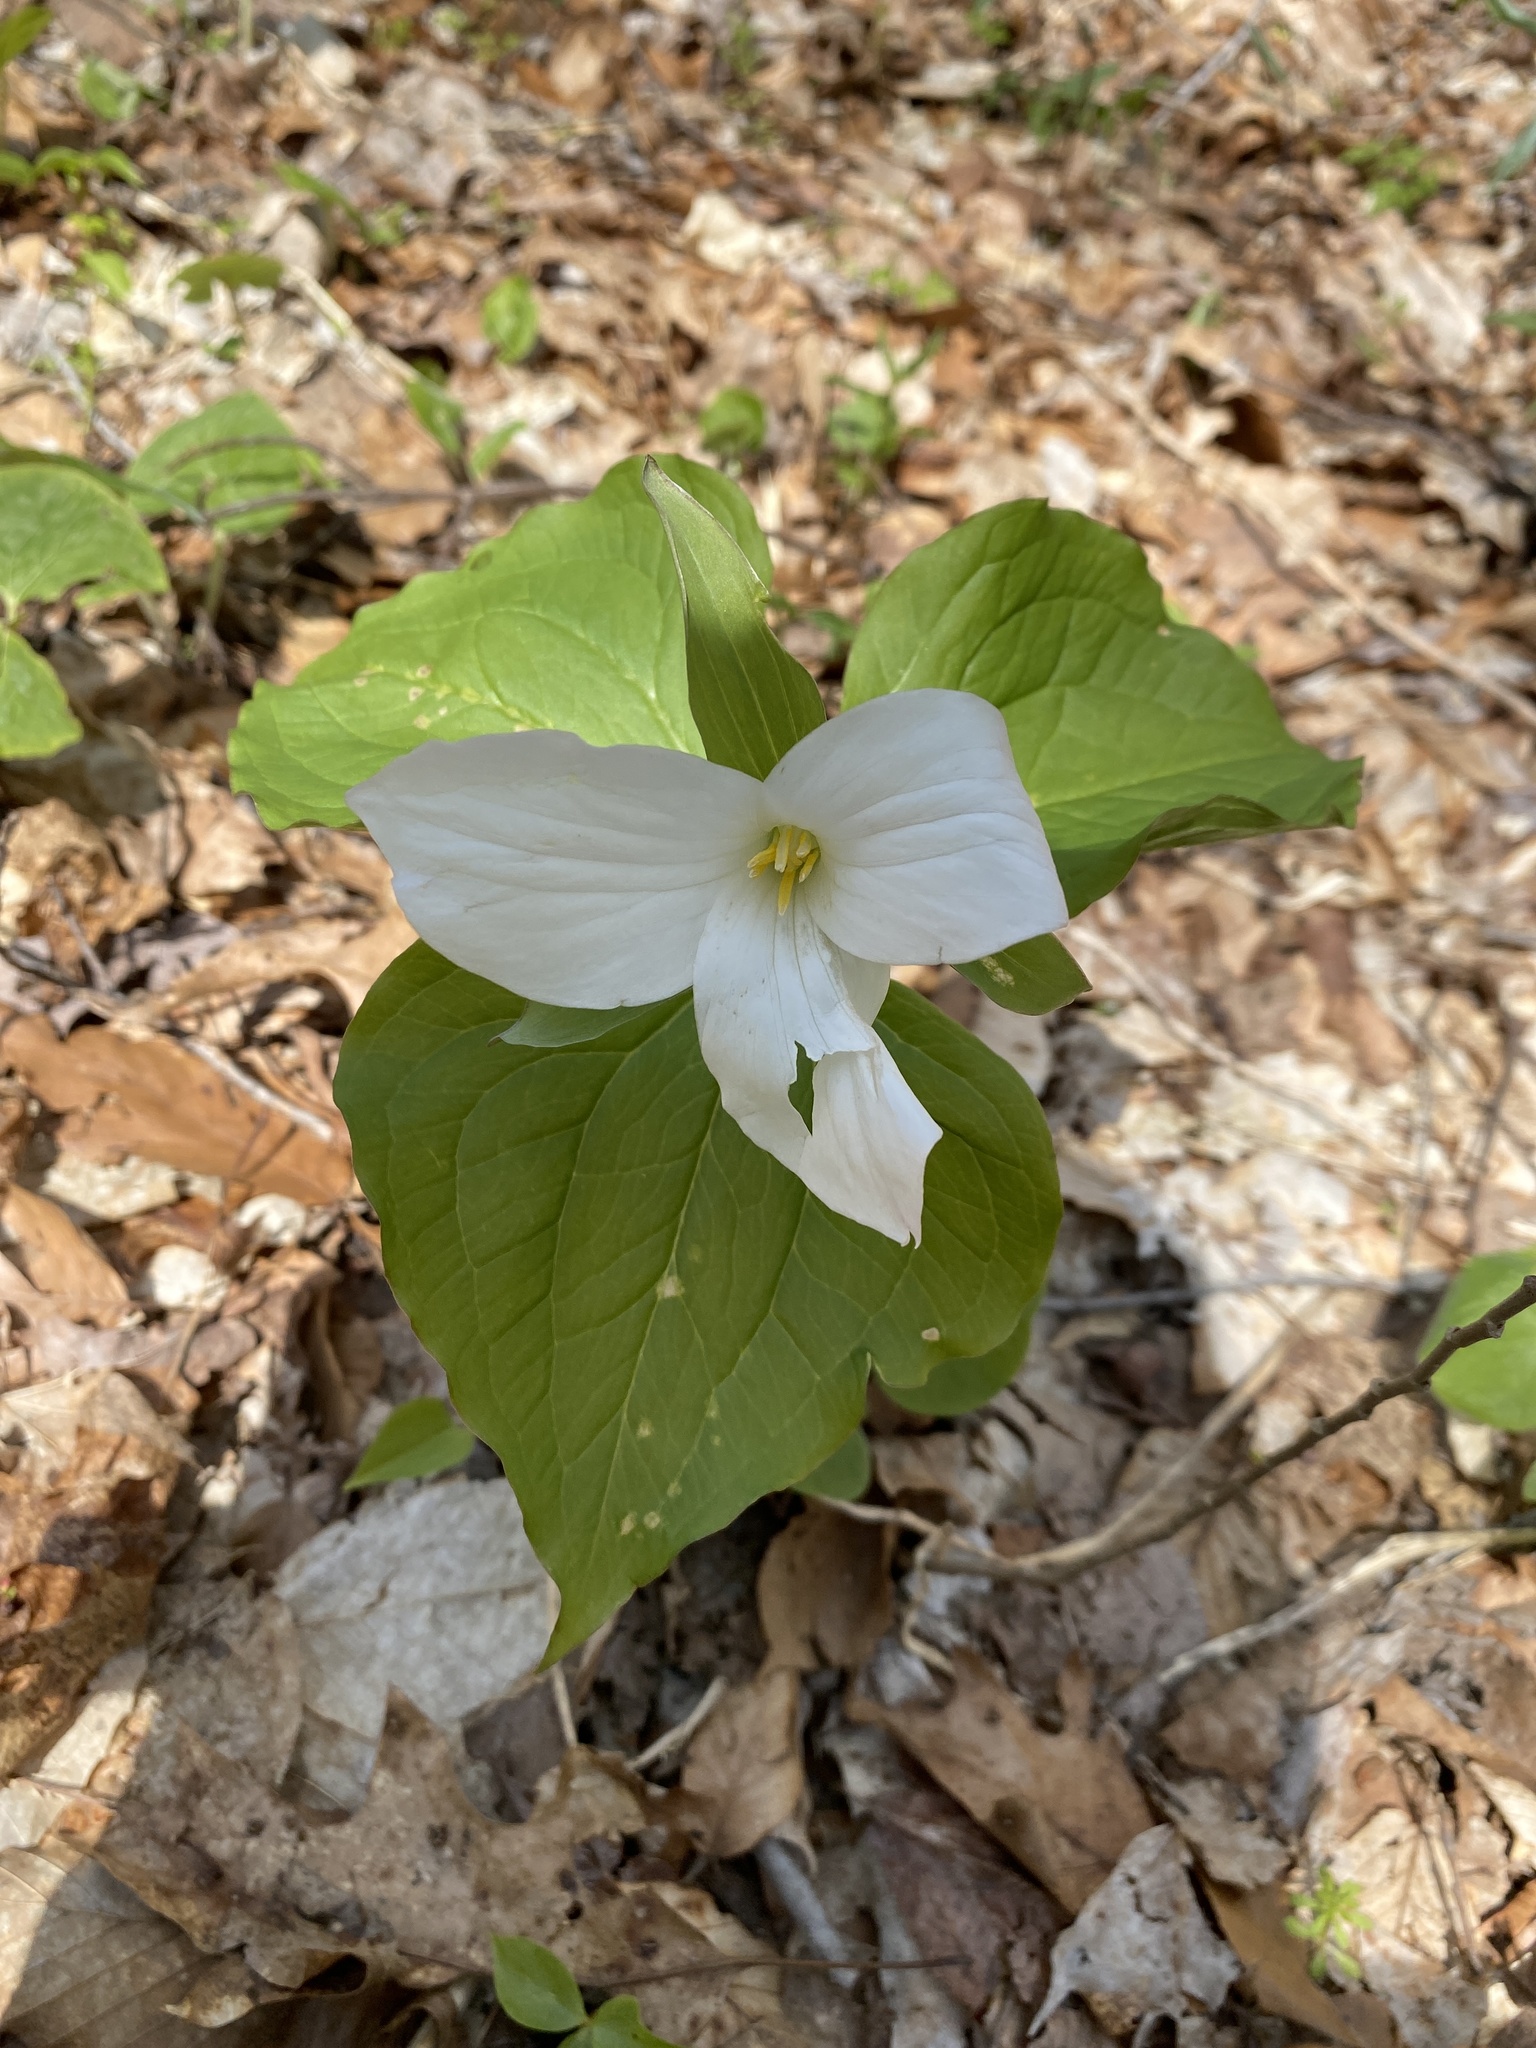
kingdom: Plantae
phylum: Tracheophyta
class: Liliopsida
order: Liliales
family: Melanthiaceae
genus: Trillium
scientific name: Trillium grandiflorum
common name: Great white trillium
